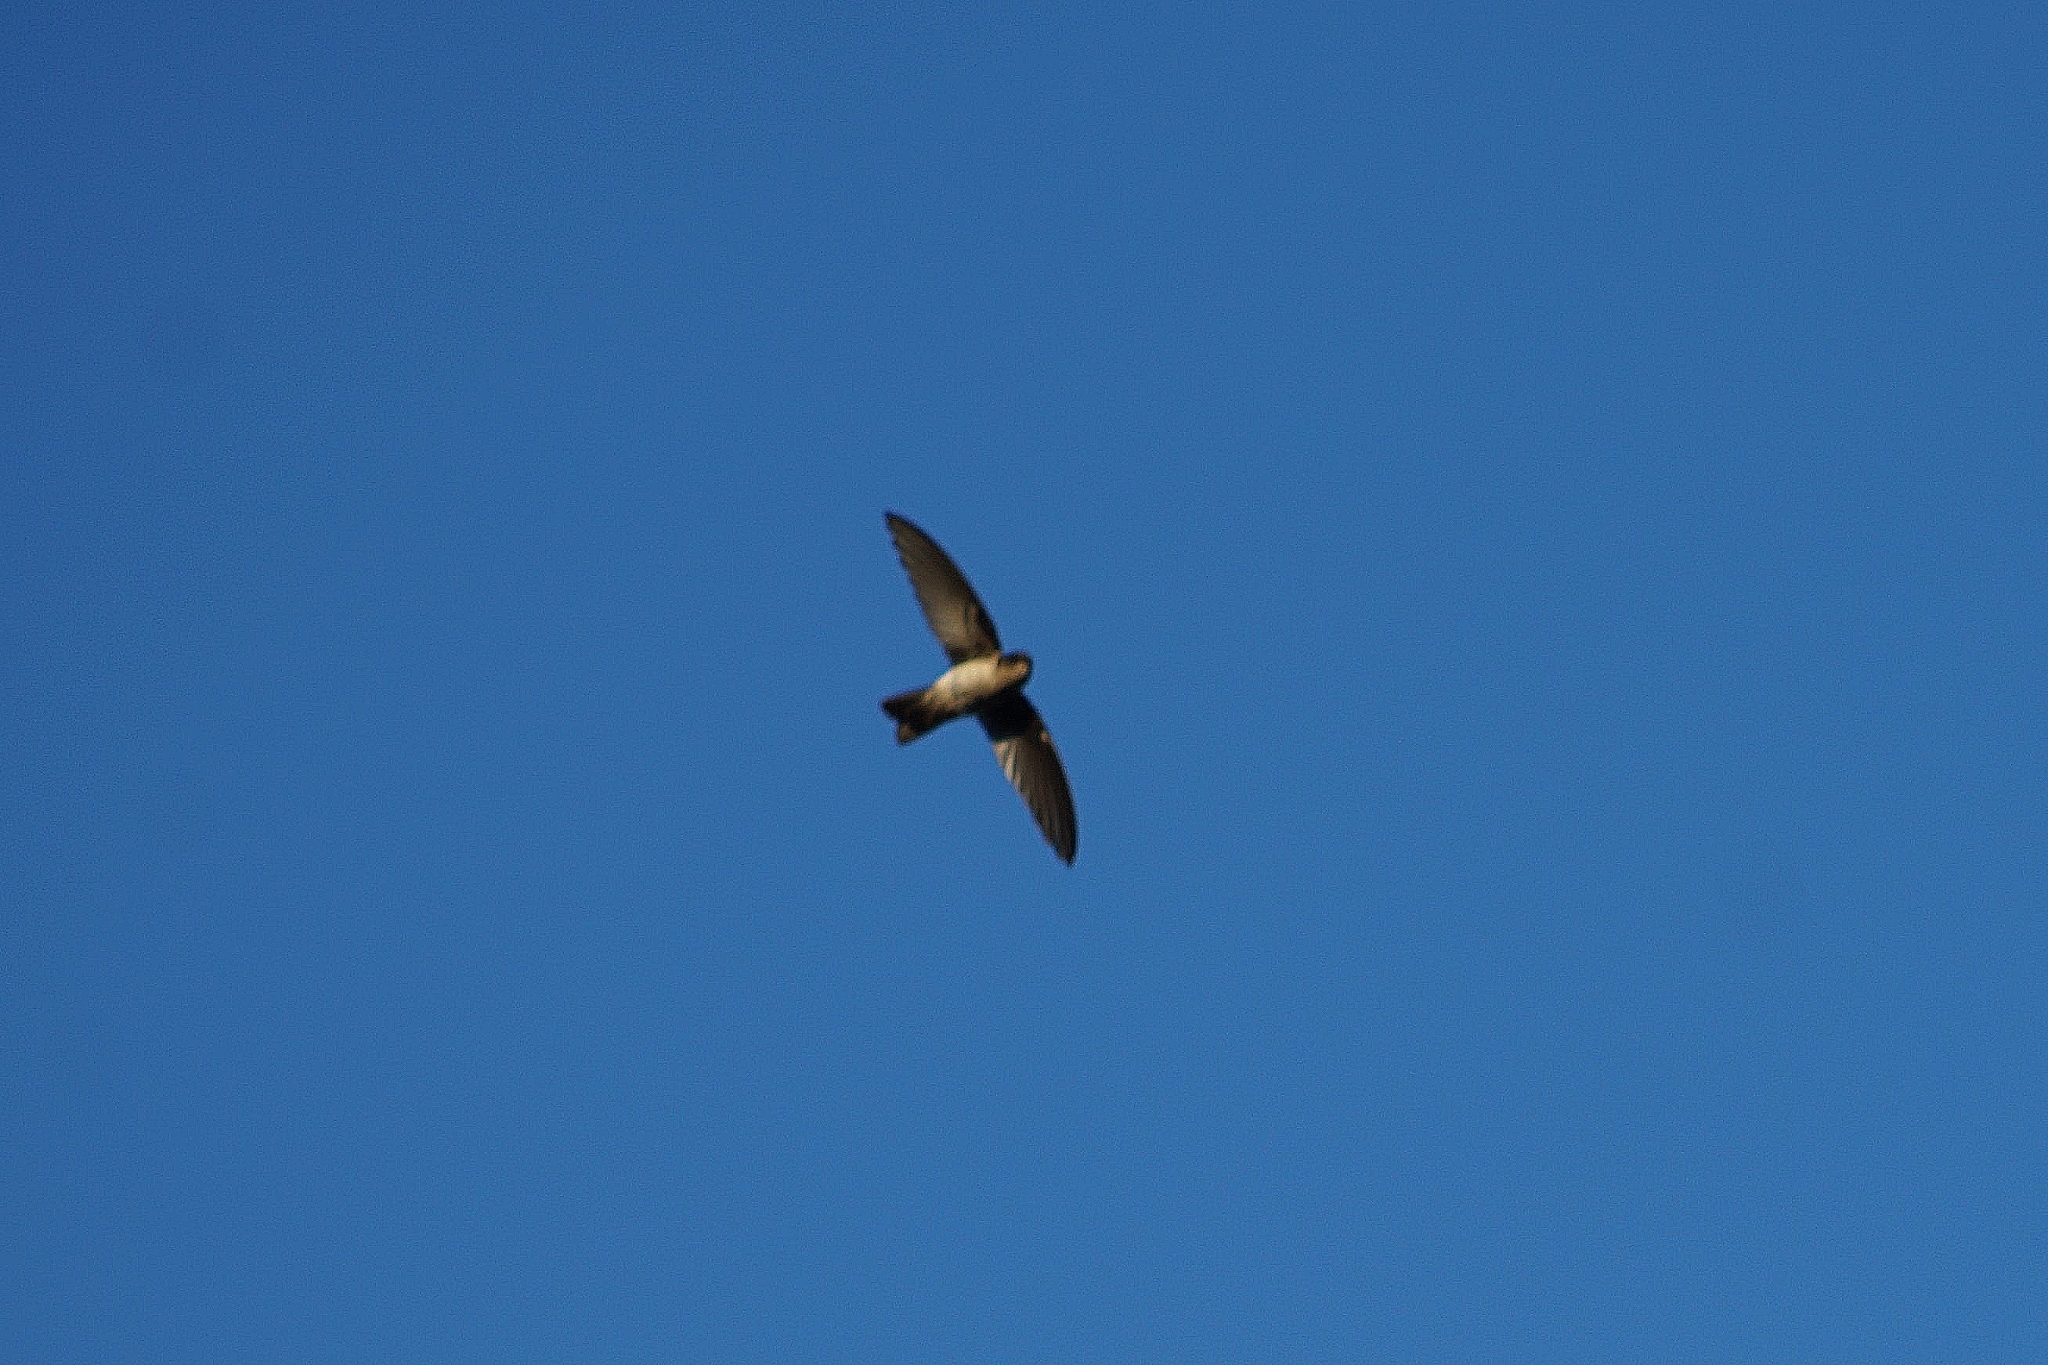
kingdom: Animalia
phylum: Chordata
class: Aves
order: Apodiformes
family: Apodidae
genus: Aerodramus
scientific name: Aerodramus francicus
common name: Mascarene swiftlet
